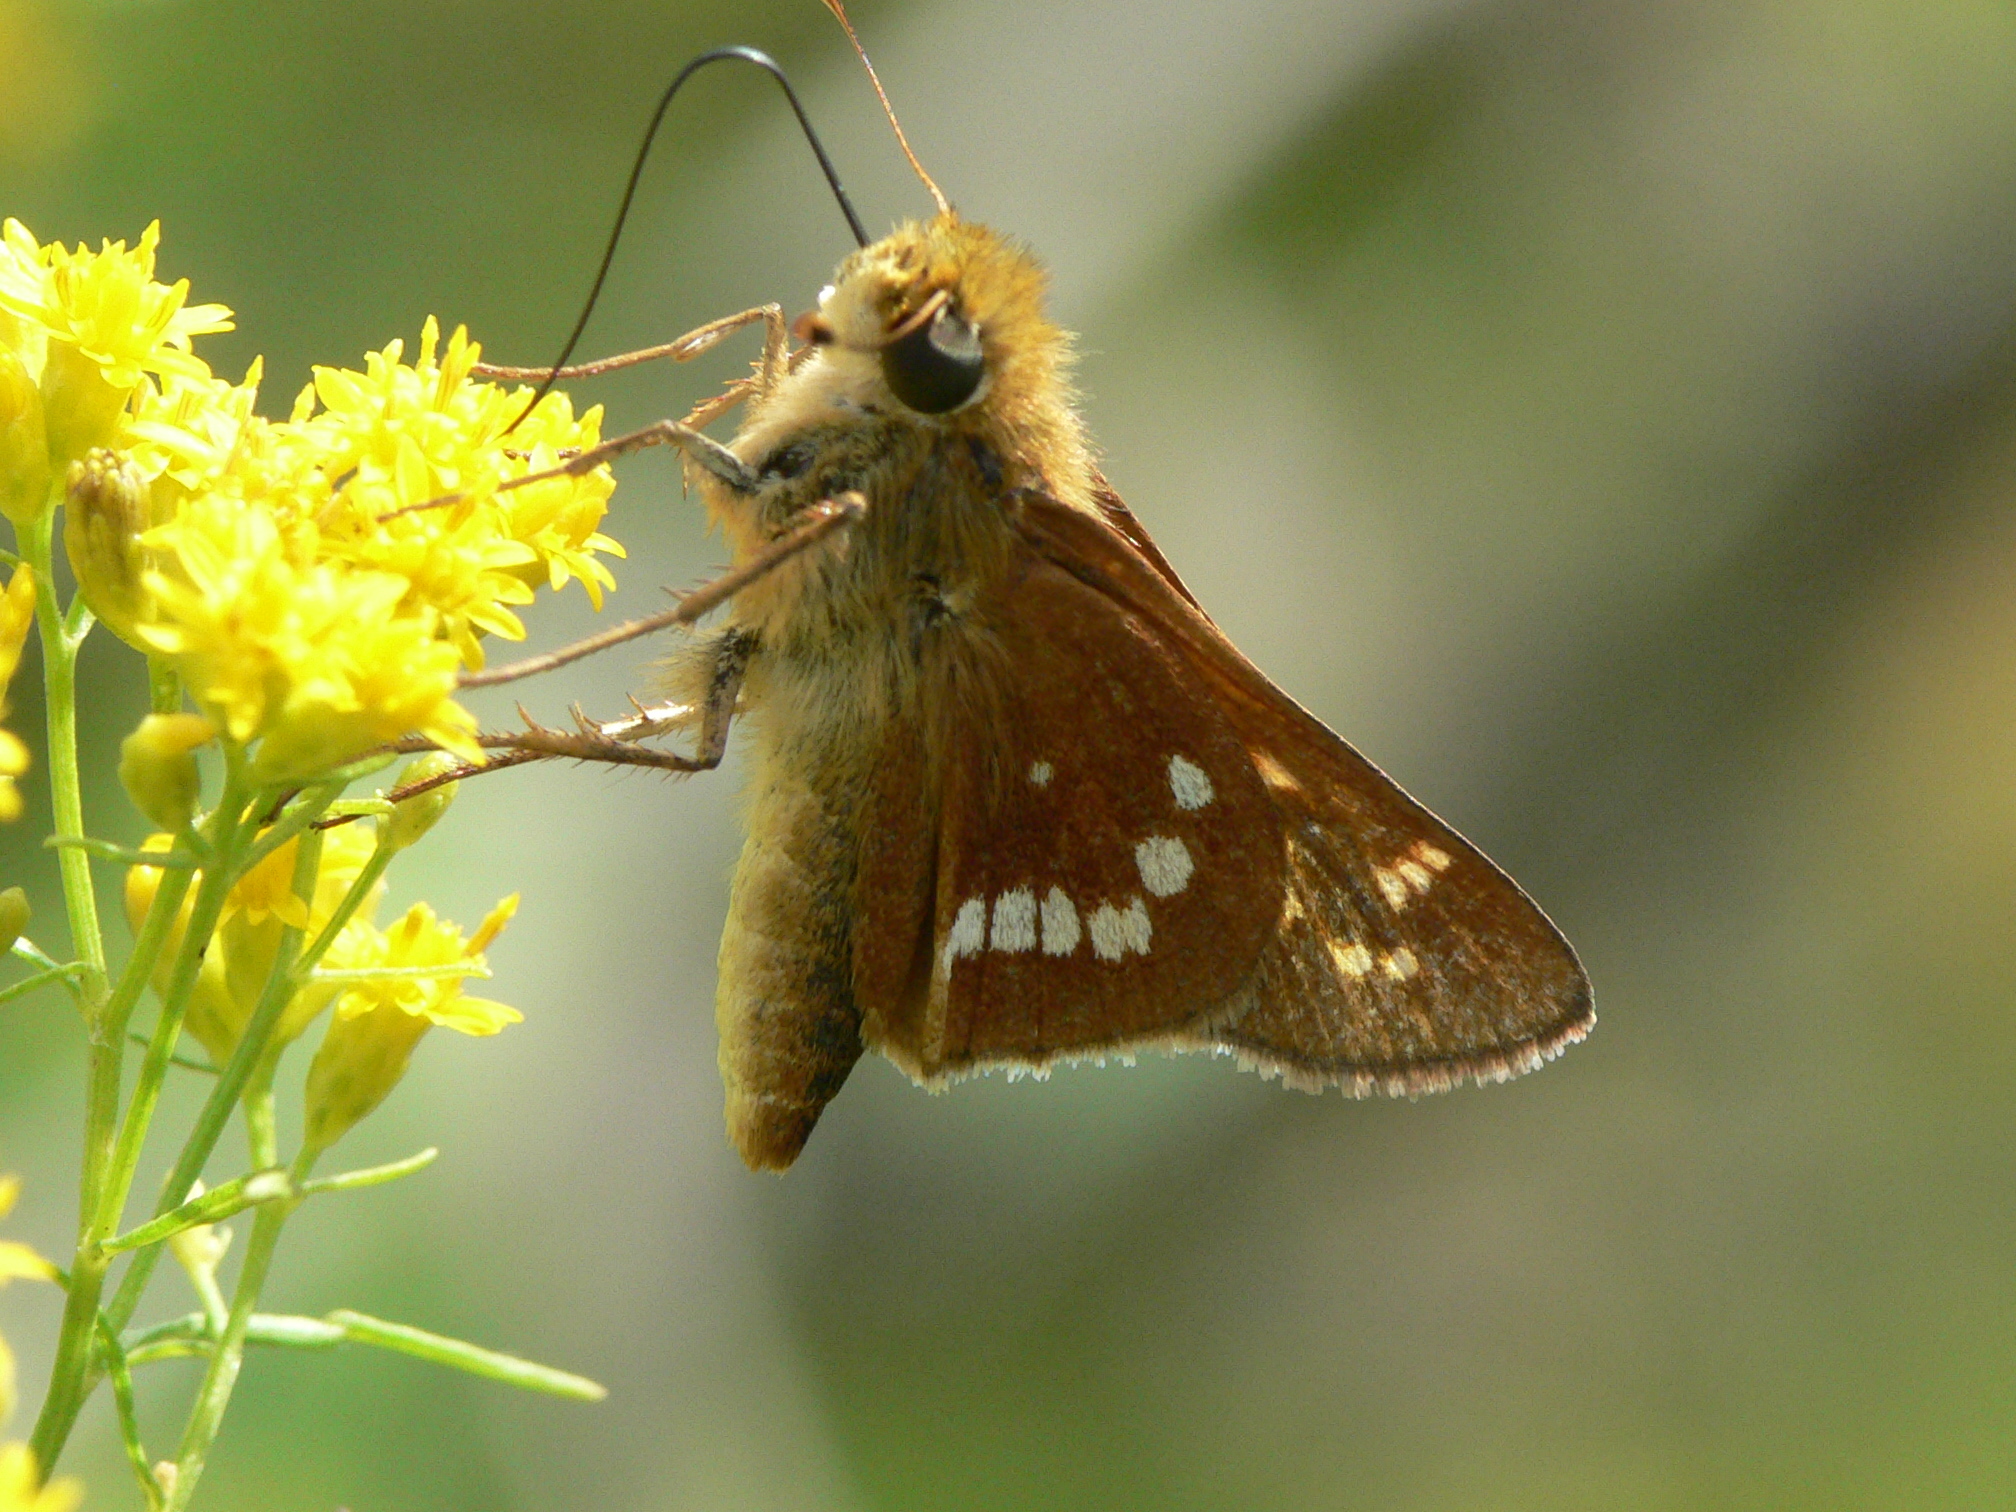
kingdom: Animalia
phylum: Arthropoda
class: Insecta
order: Lepidoptera
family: Hesperiidae
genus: Hesperia
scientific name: Hesperia leonardus
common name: Leonard's skipper
